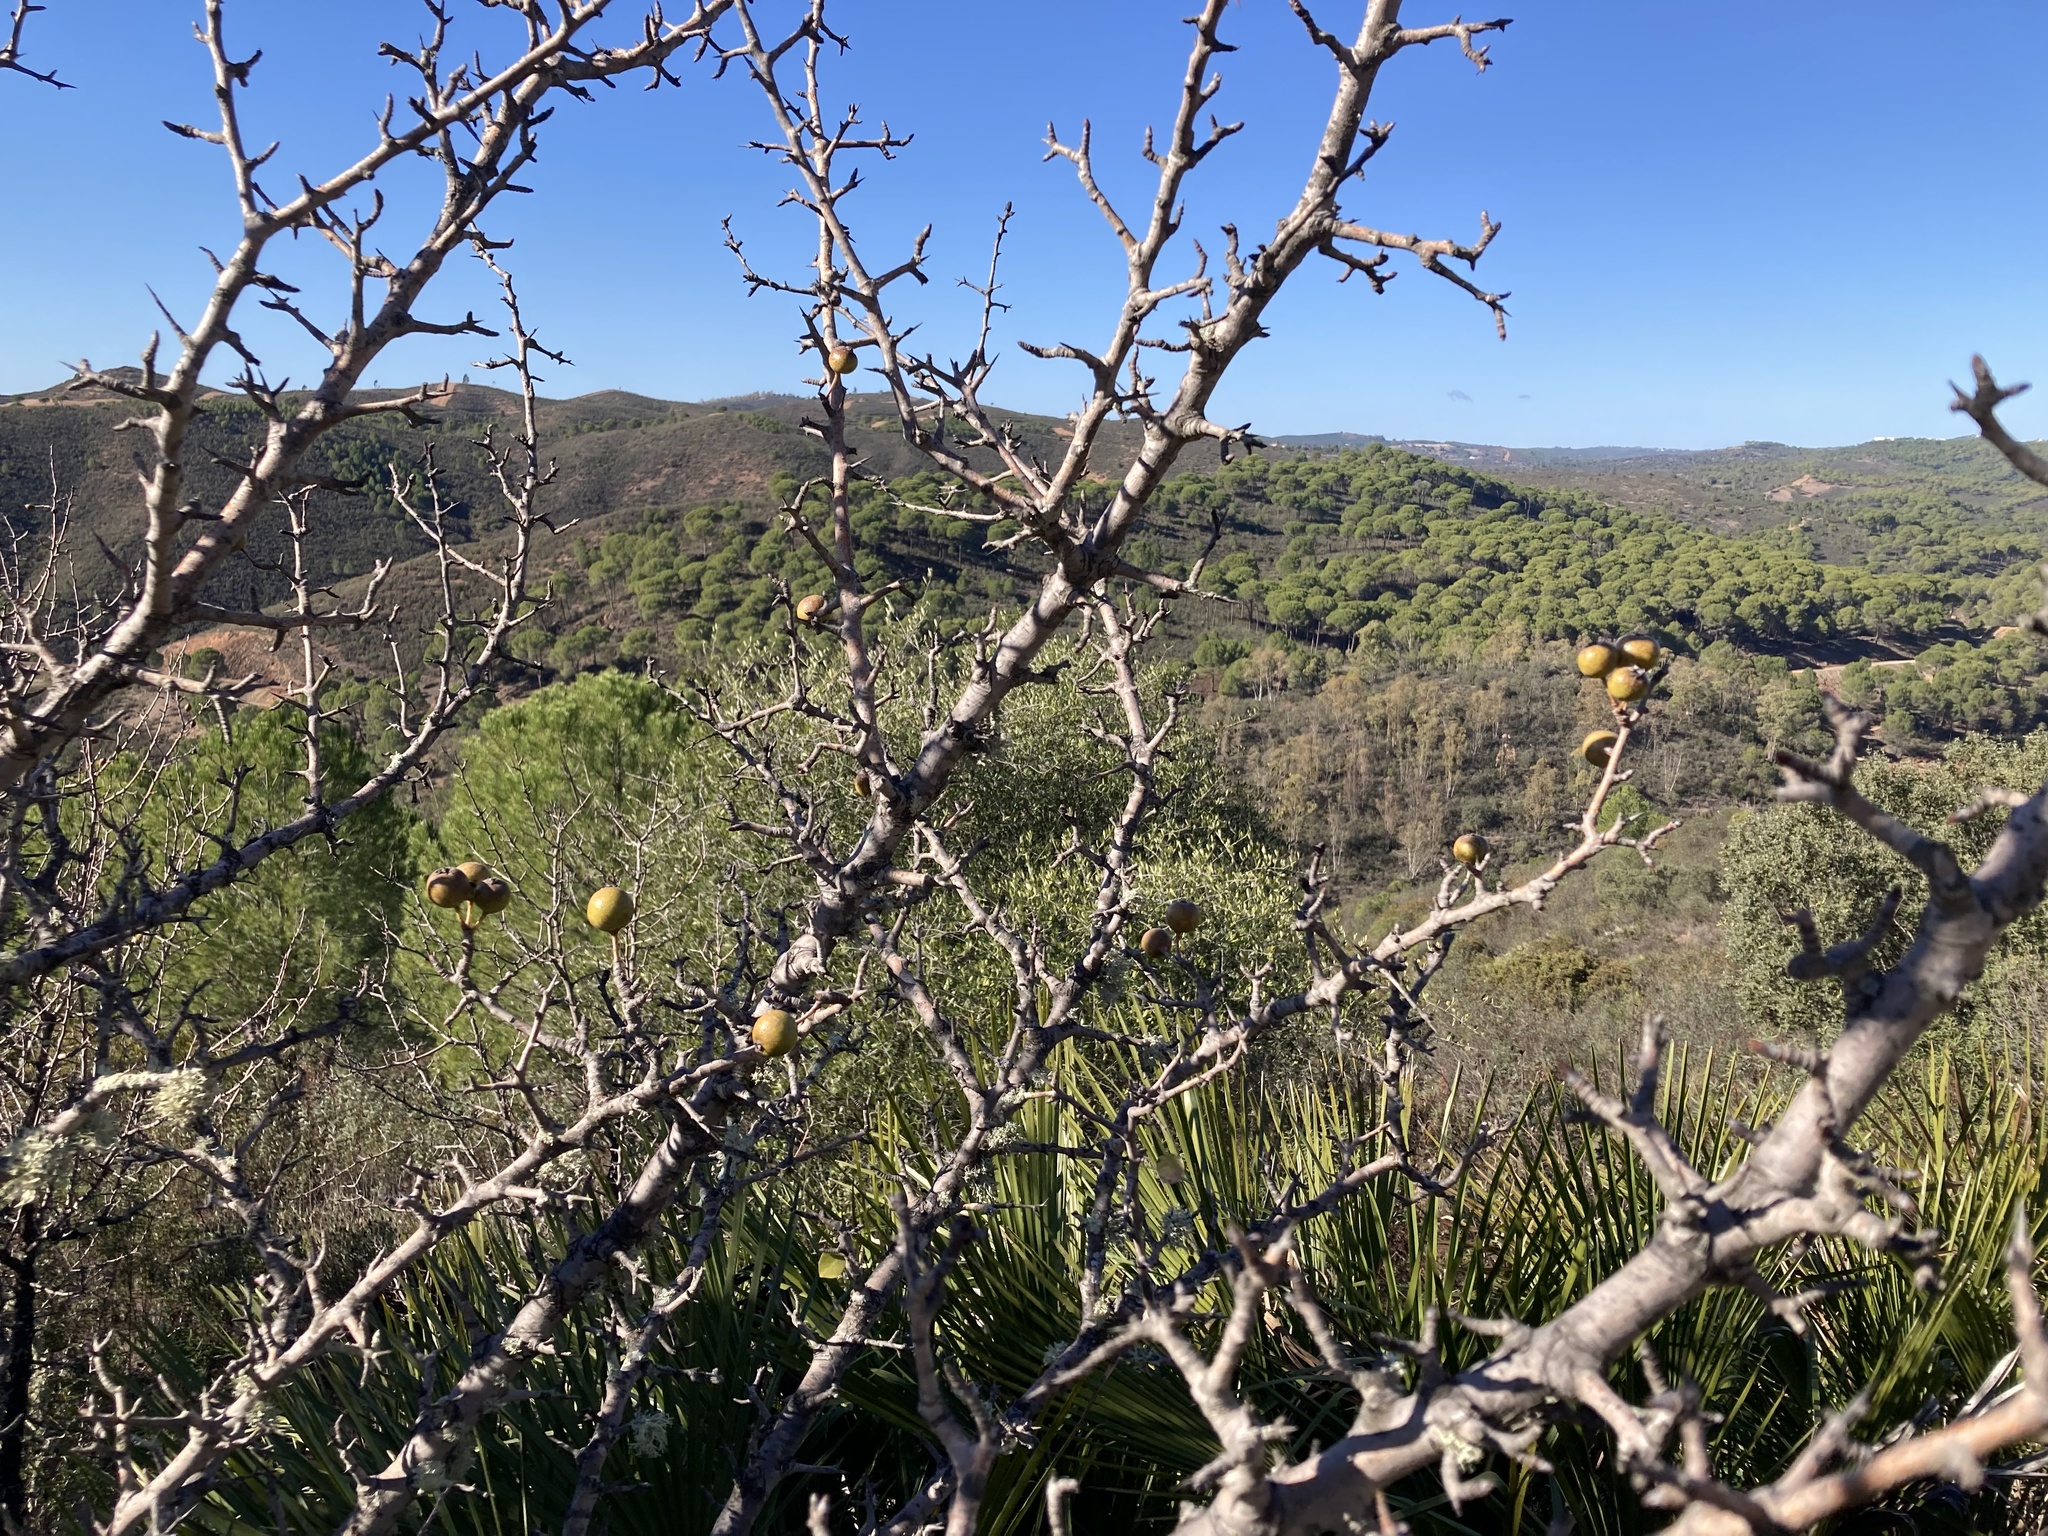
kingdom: Plantae
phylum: Tracheophyta
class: Magnoliopsida
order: Rosales
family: Rosaceae
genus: Pyrus
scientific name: Pyrus bourgaeana
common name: Iberian pear
